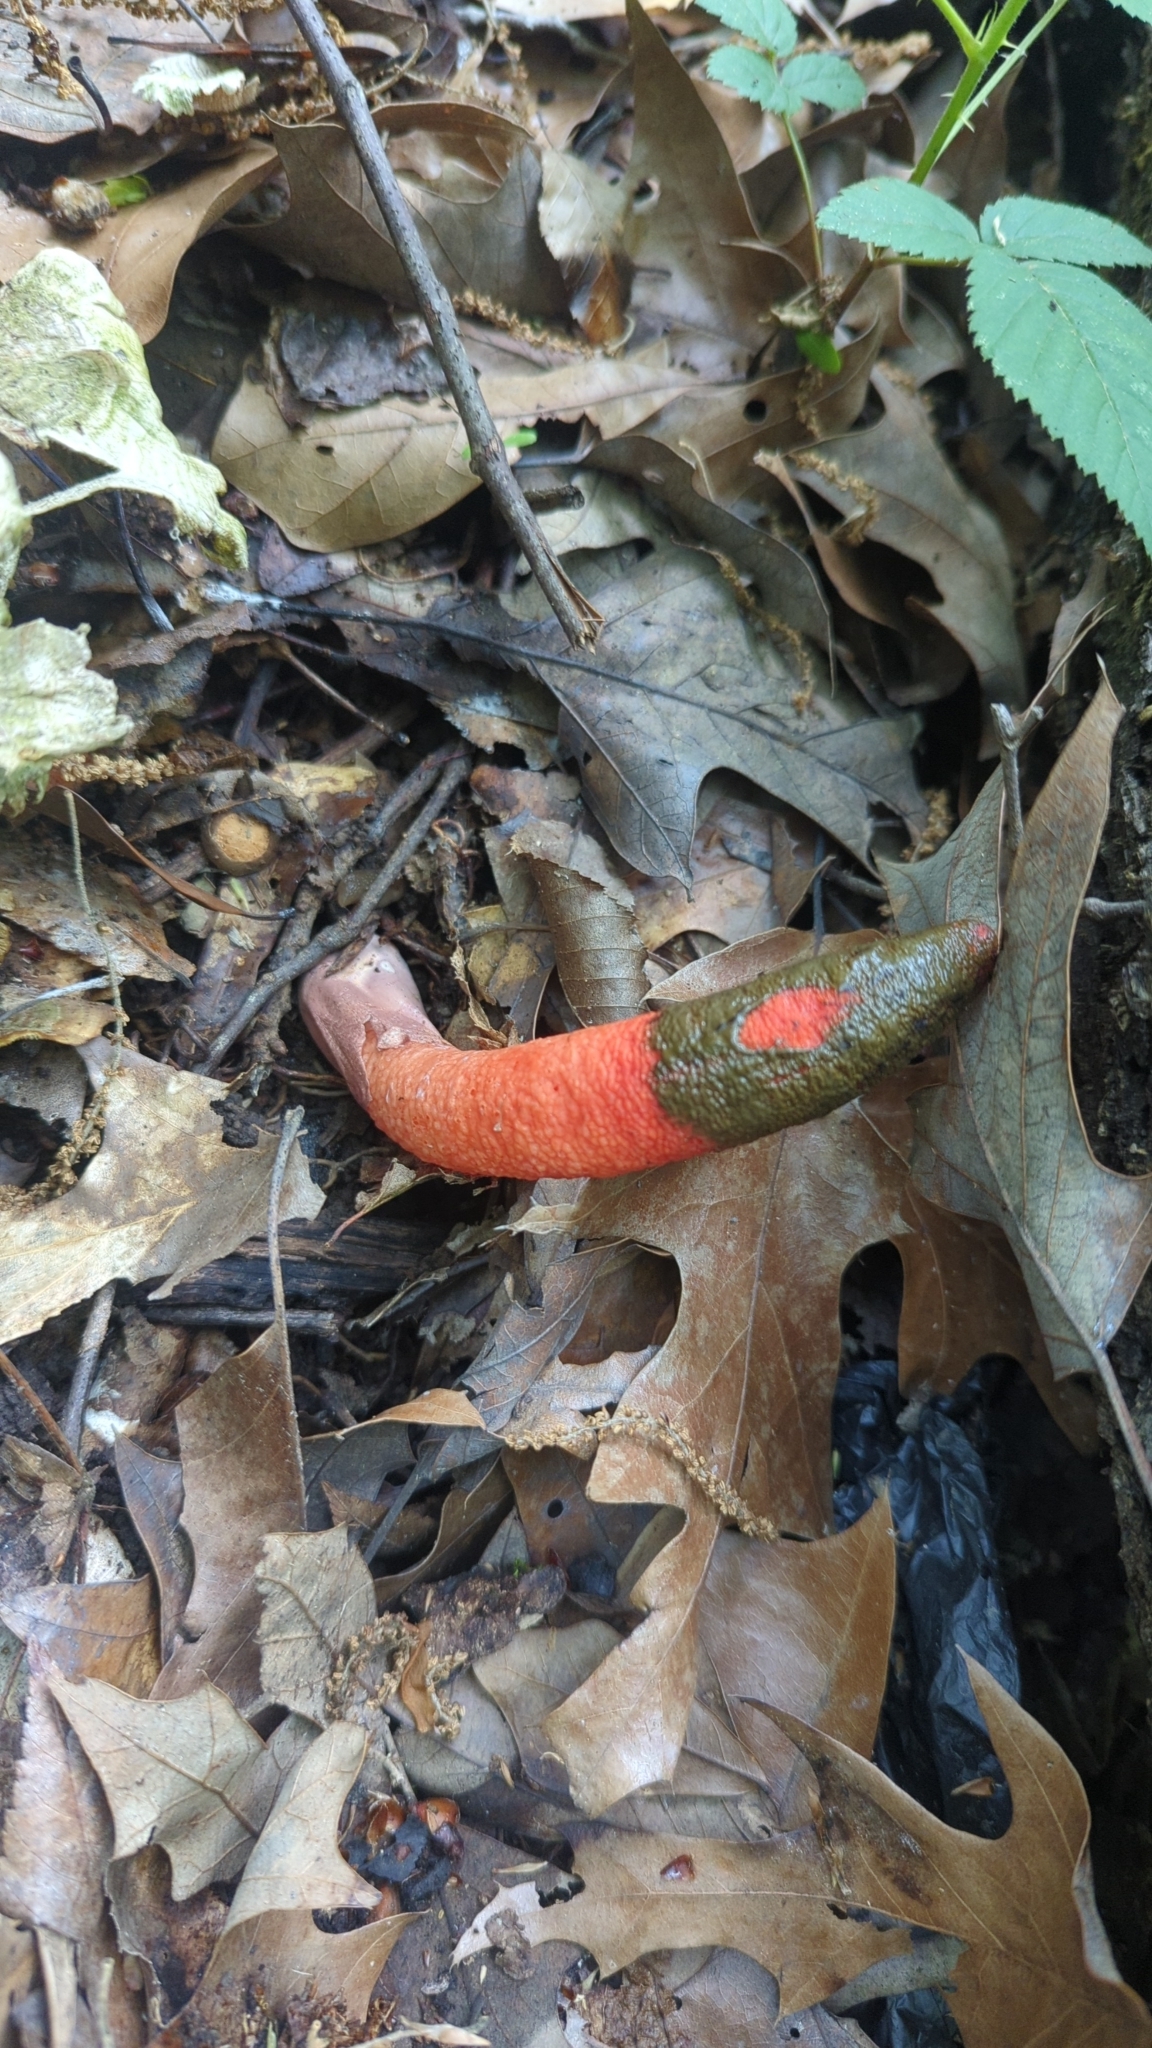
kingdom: Fungi
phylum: Basidiomycota
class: Agaricomycetes
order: Phallales
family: Phallaceae
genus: Mutinus
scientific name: Mutinus elegans
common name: Devil's dipstick
